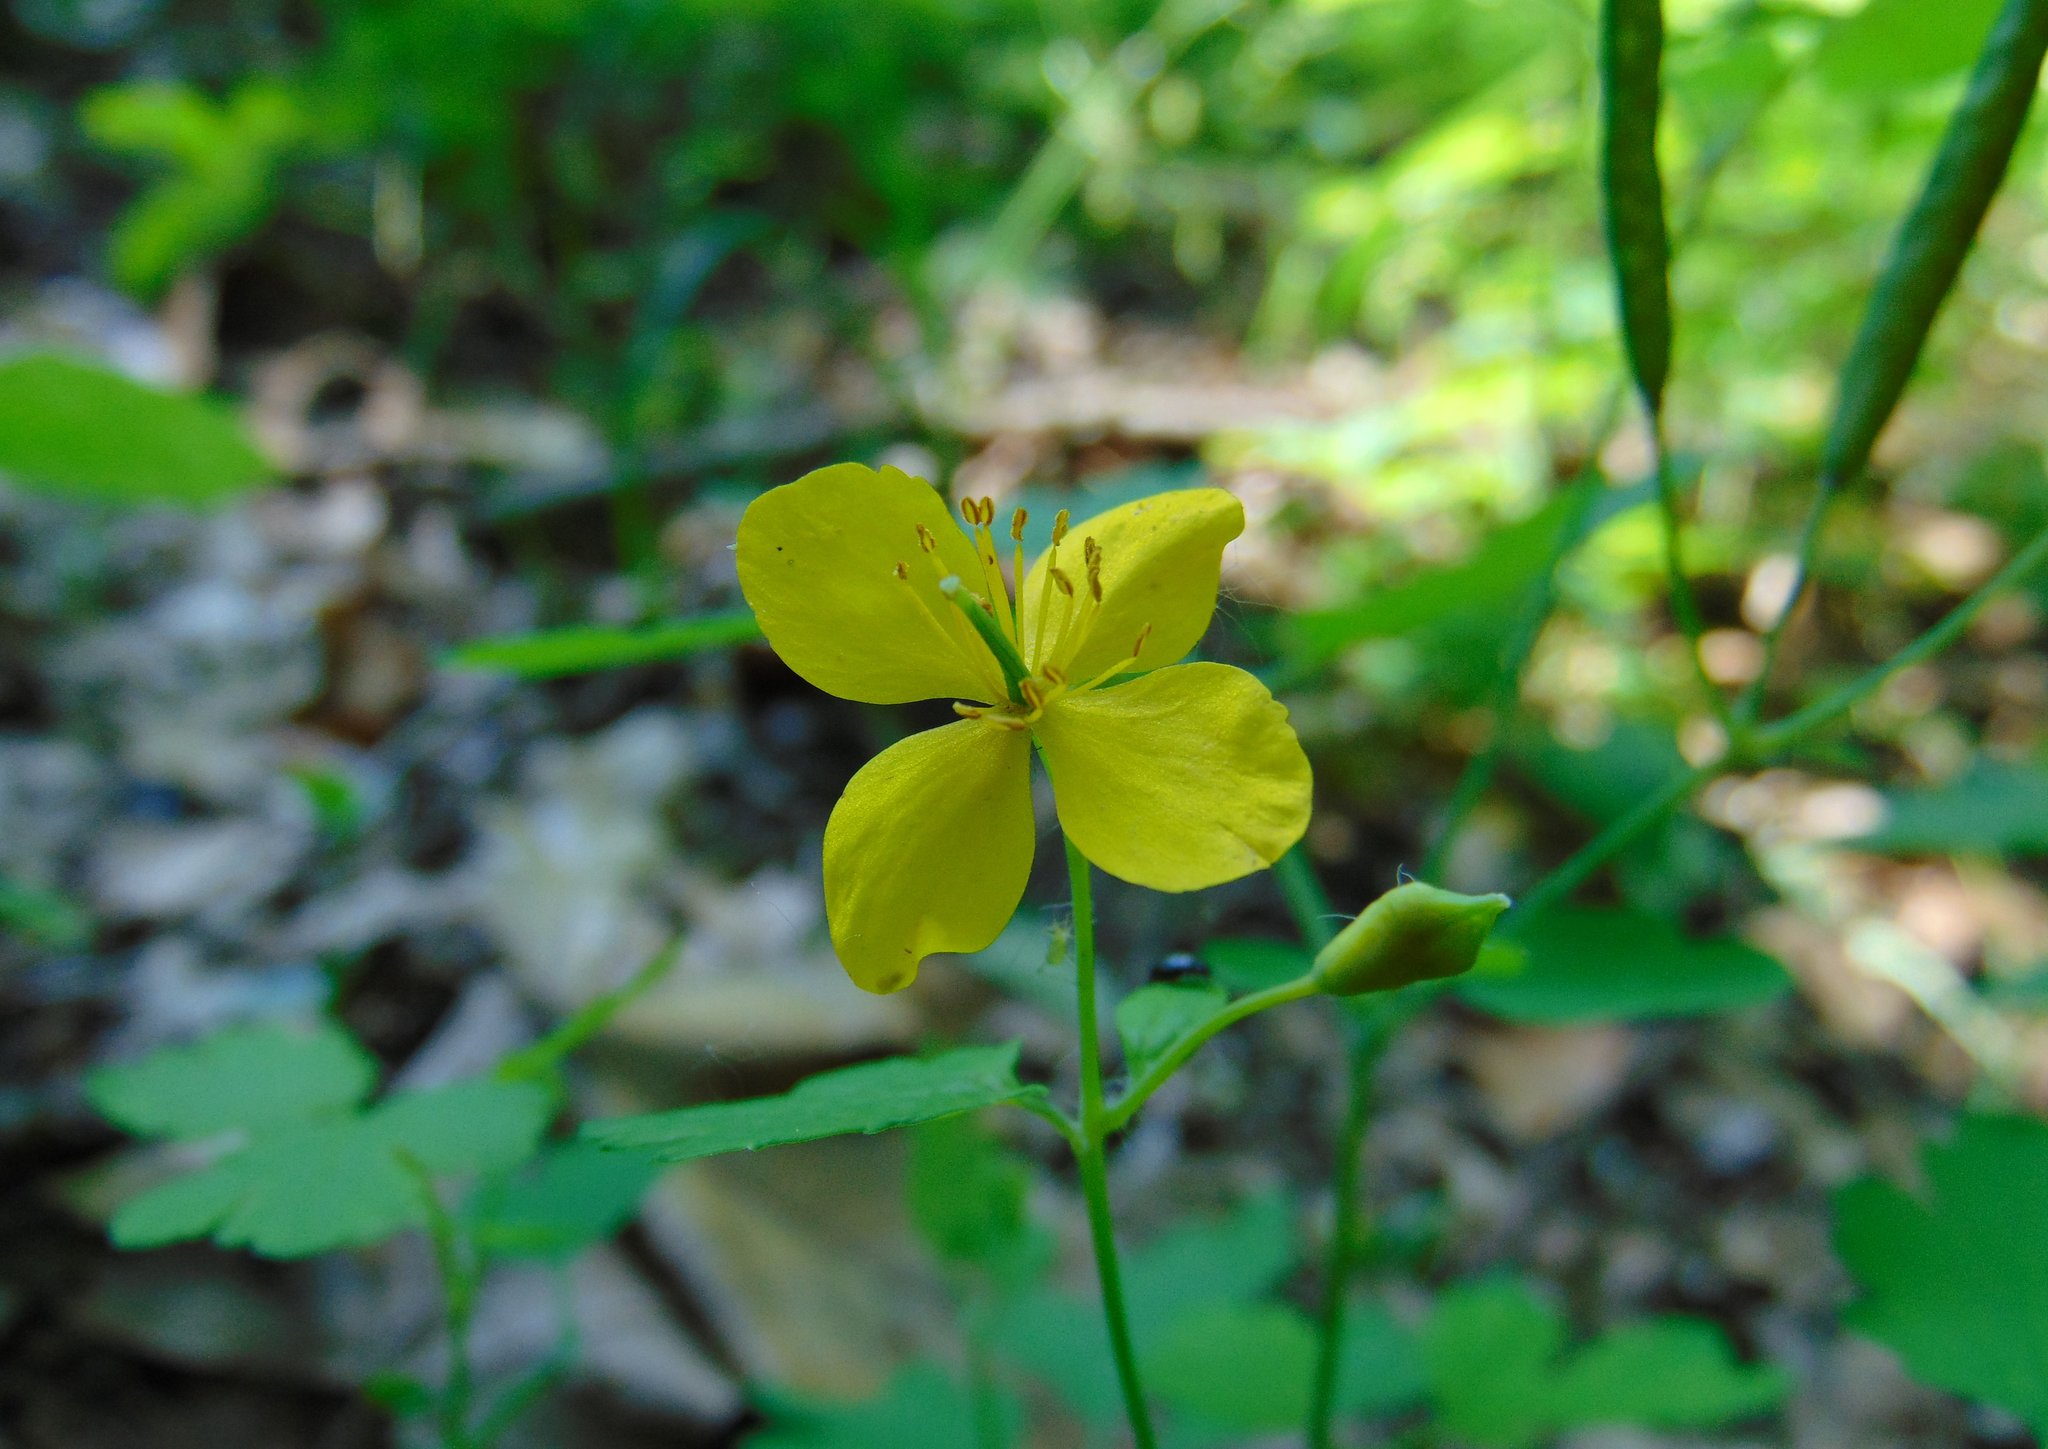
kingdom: Plantae
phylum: Tracheophyta
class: Magnoliopsida
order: Ranunculales
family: Papaveraceae
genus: Chelidonium
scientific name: Chelidonium majus
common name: Greater celandine
